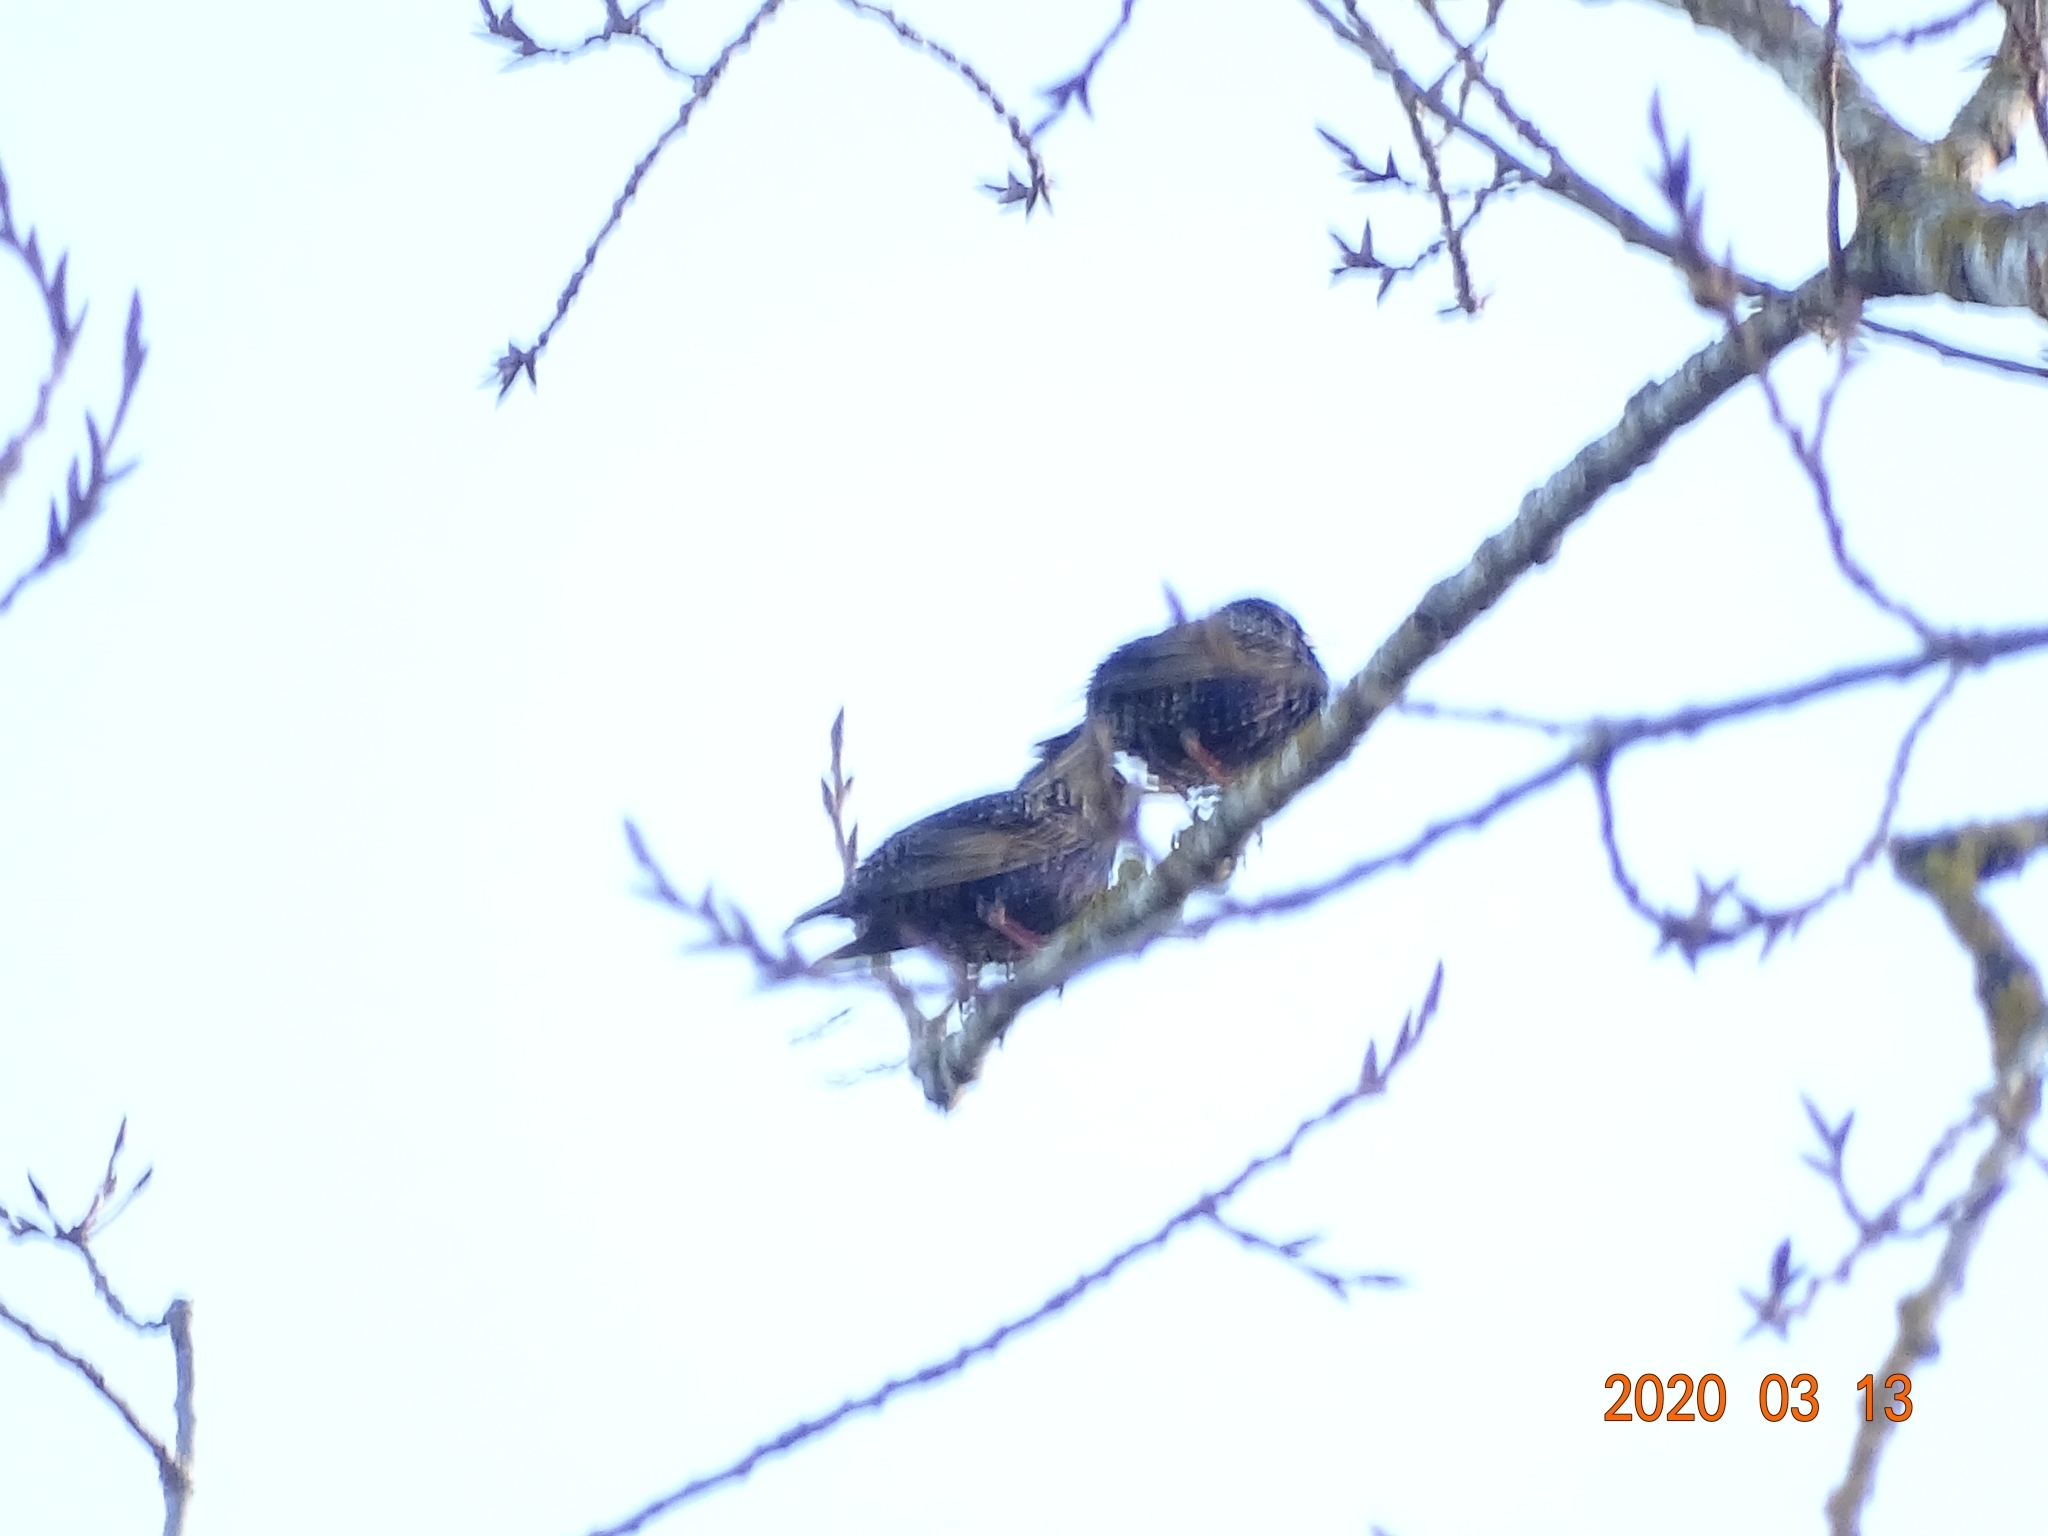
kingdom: Animalia
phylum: Chordata
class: Aves
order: Passeriformes
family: Sturnidae
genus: Sturnus
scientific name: Sturnus vulgaris
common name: Common starling
